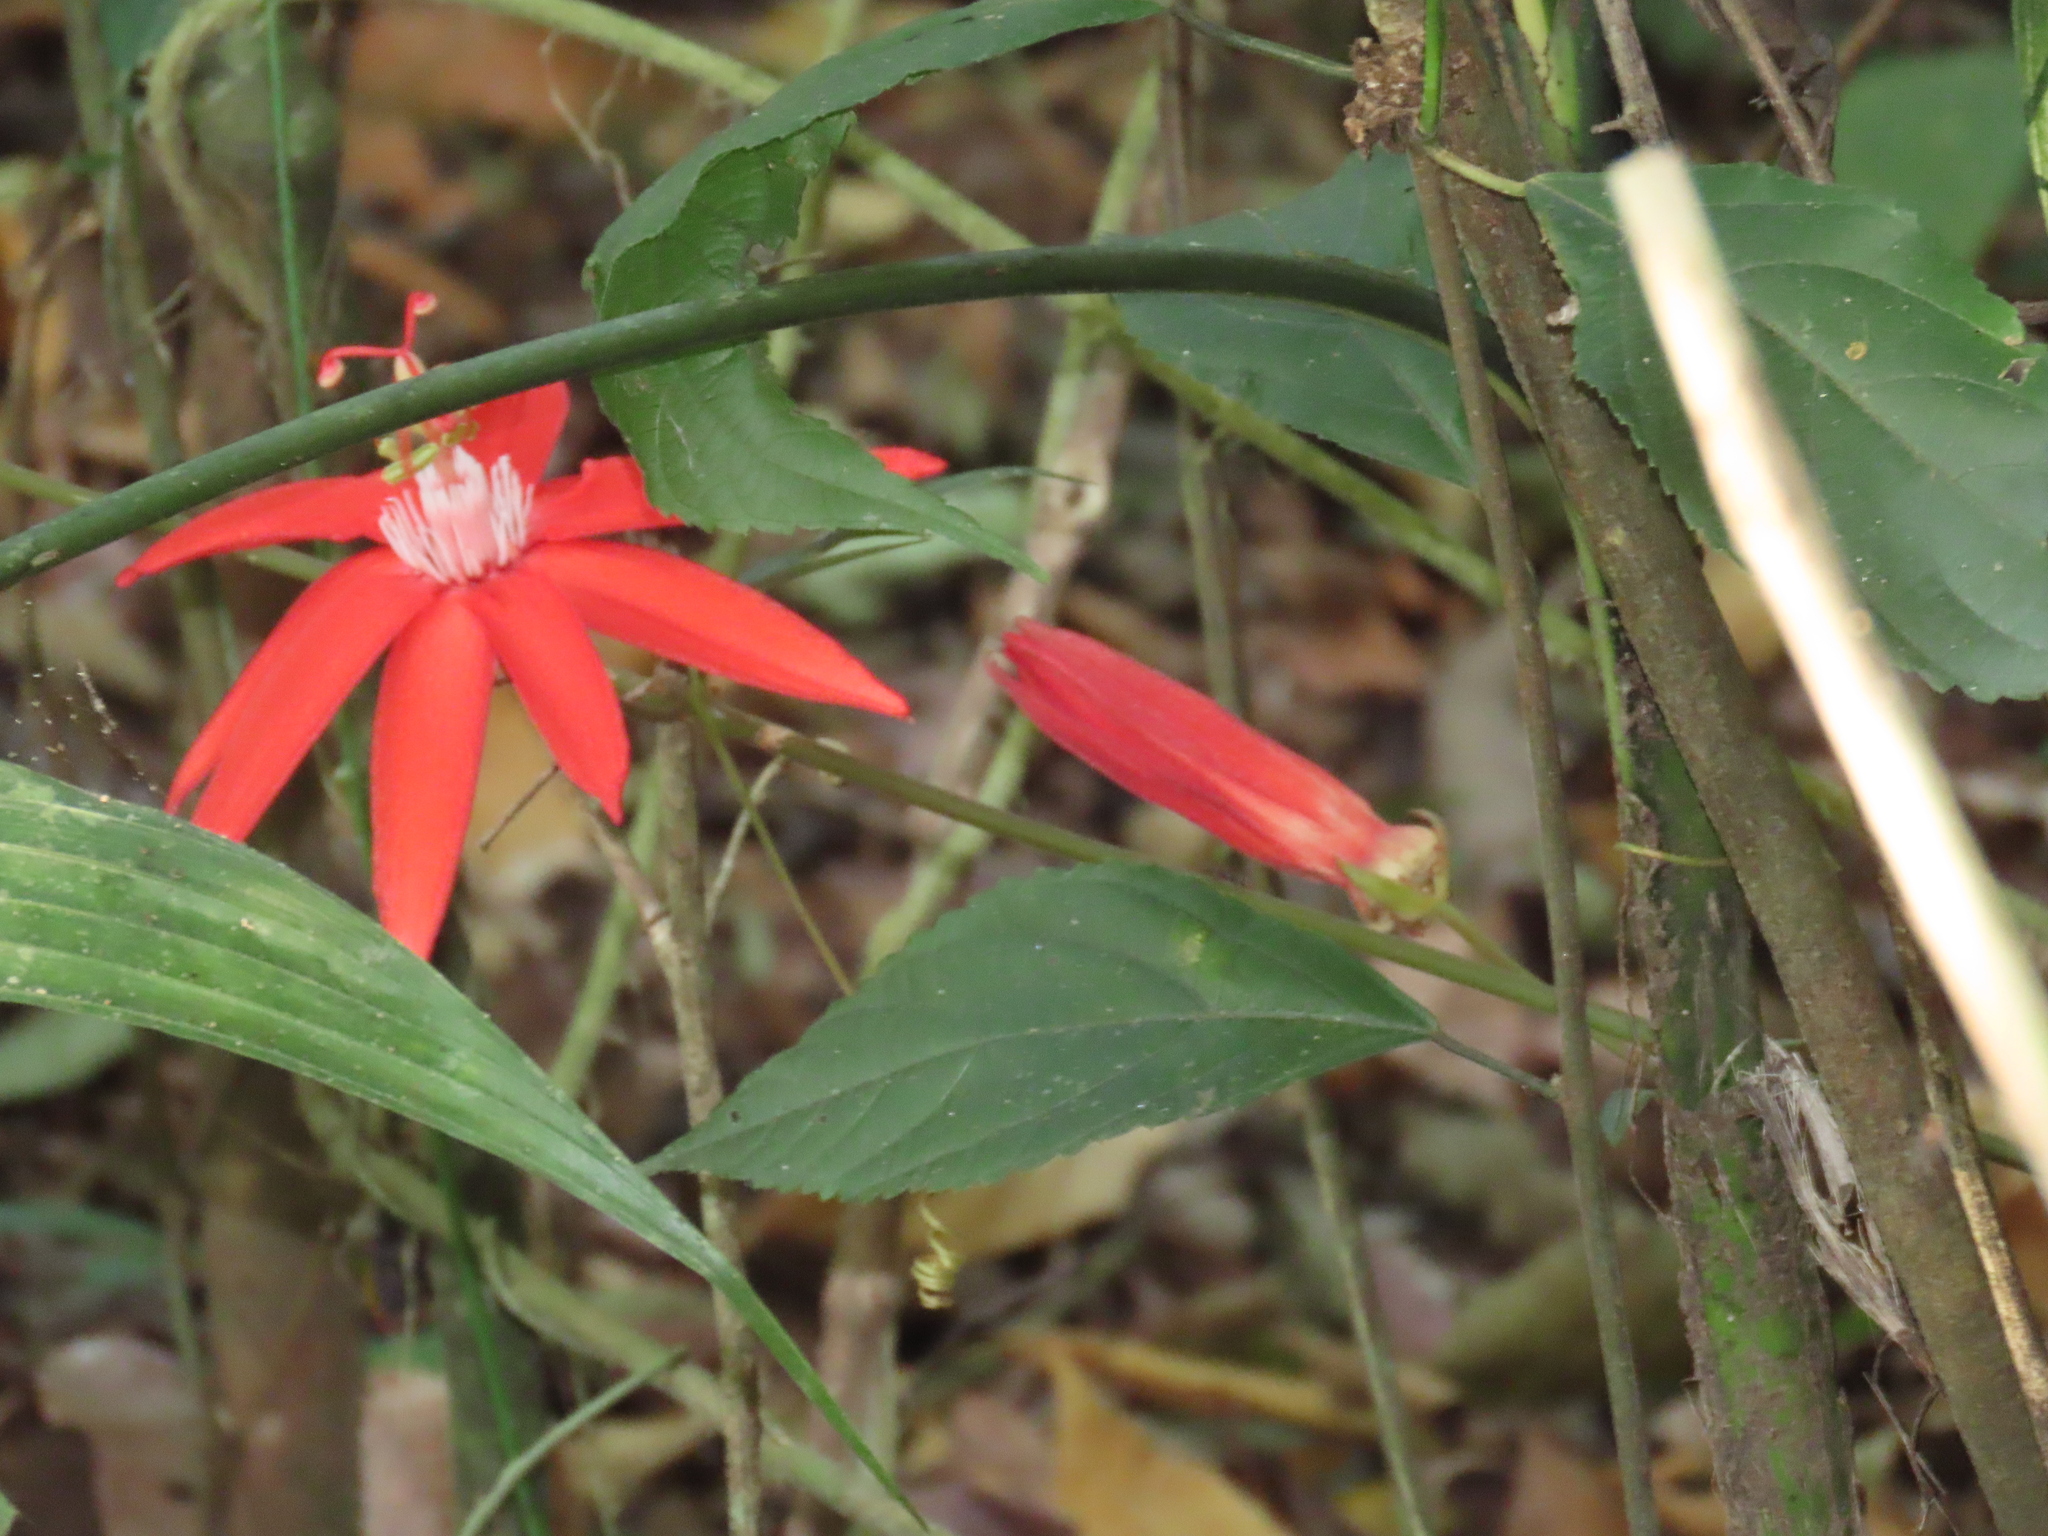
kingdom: Plantae
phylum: Tracheophyta
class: Magnoliopsida
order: Malpighiales
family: Passifloraceae
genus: Passiflora
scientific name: Passiflora vitifolia
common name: Perfumed passionflower
